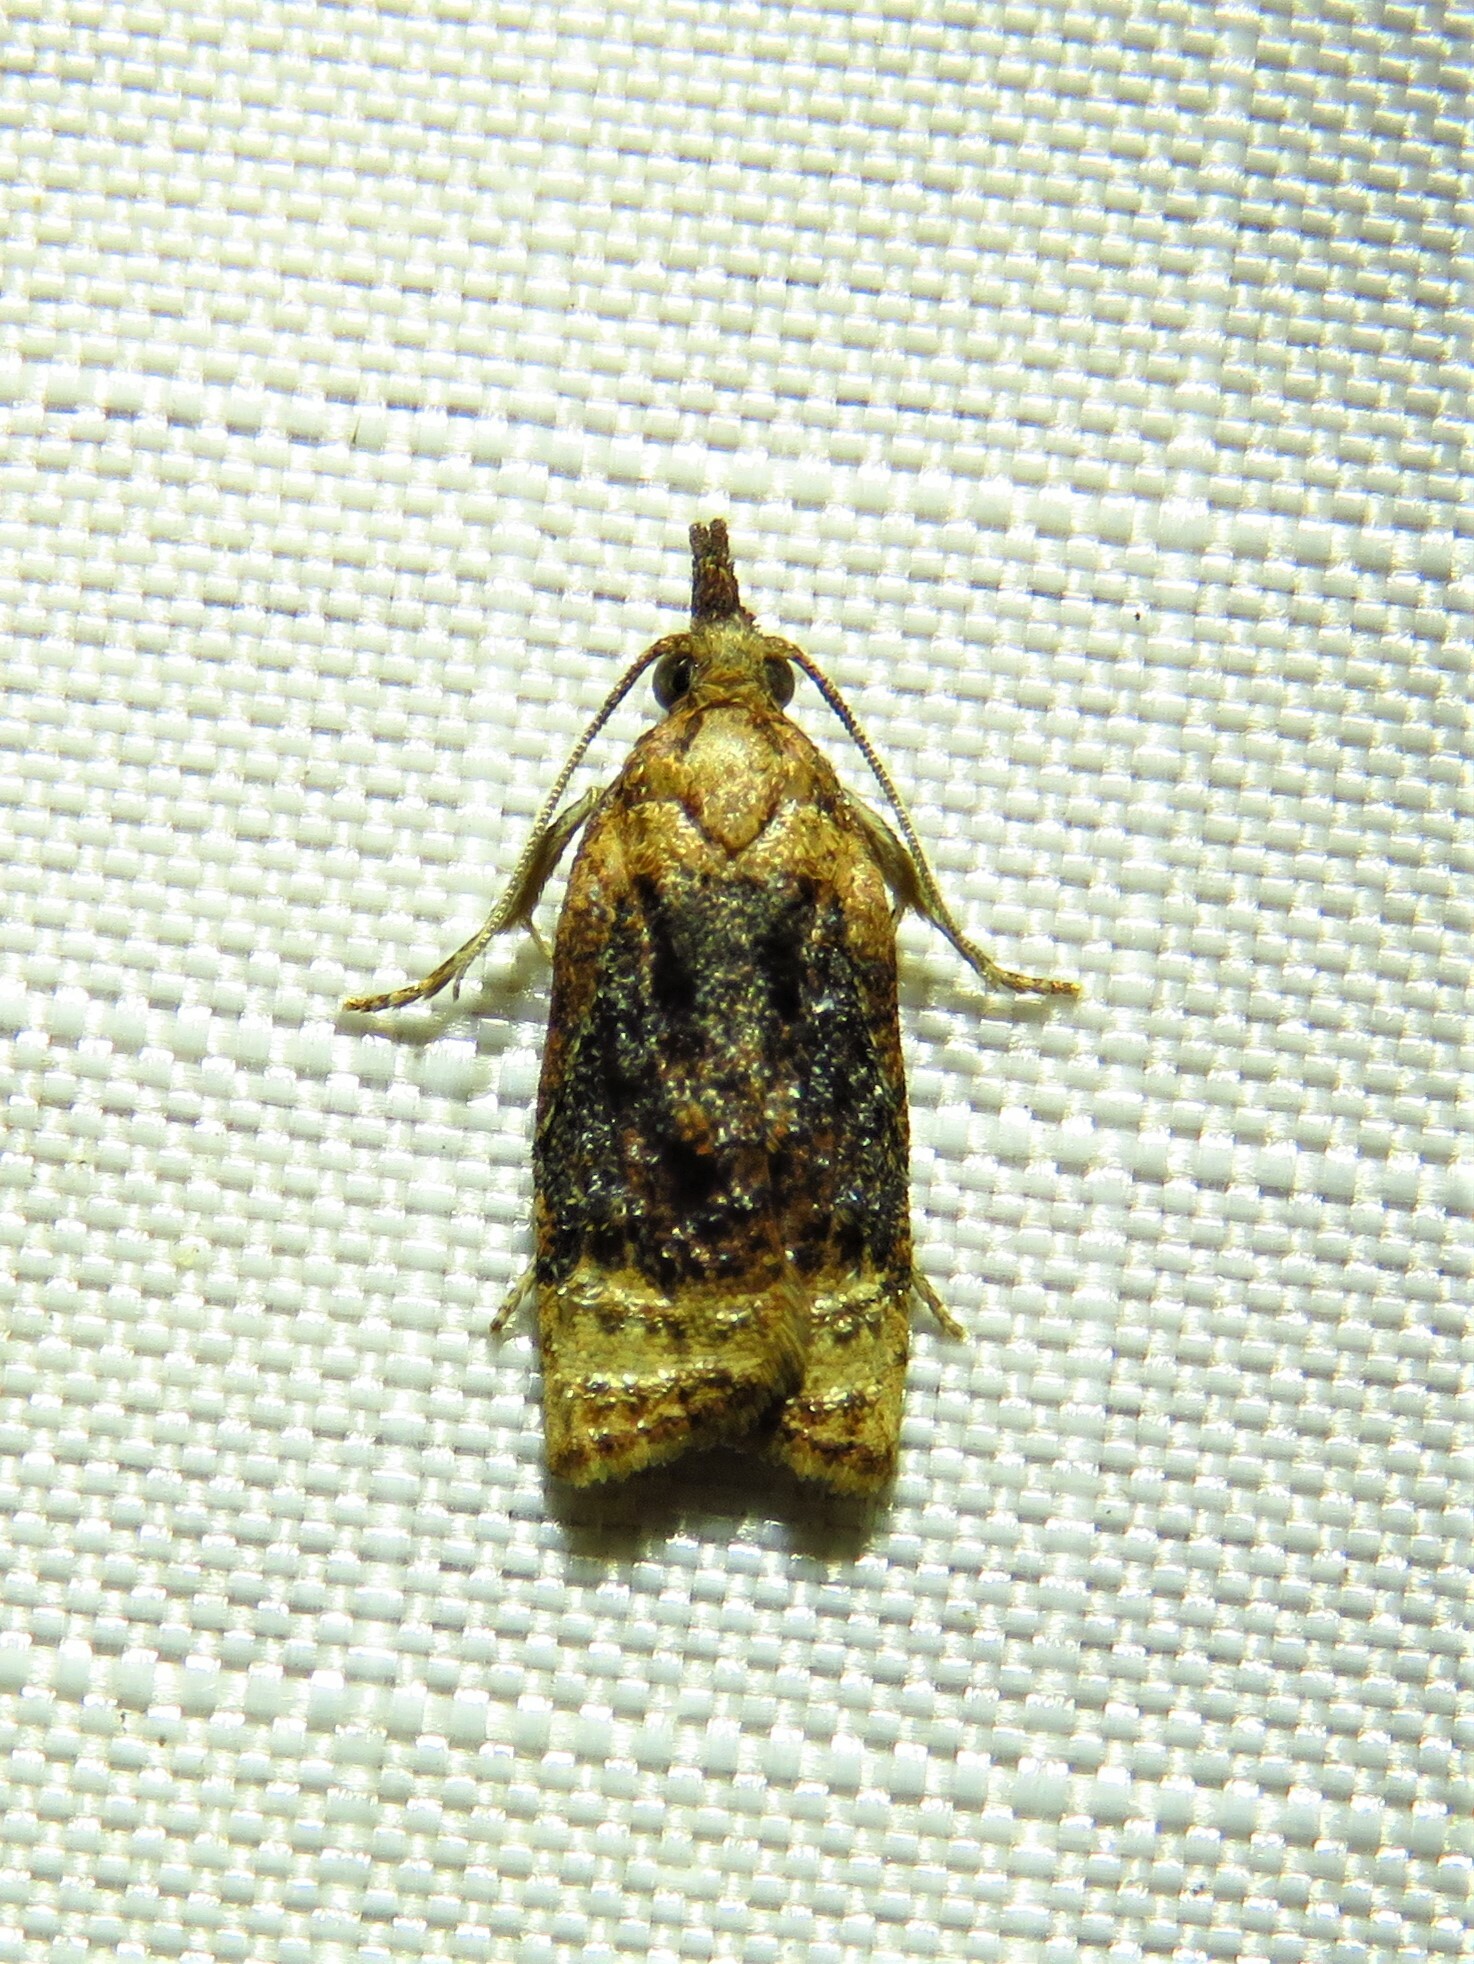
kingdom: Animalia
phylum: Arthropoda
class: Insecta
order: Lepidoptera
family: Tortricidae
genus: Platynota
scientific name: Platynota flavedana
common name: Black-shaded platynota moth
